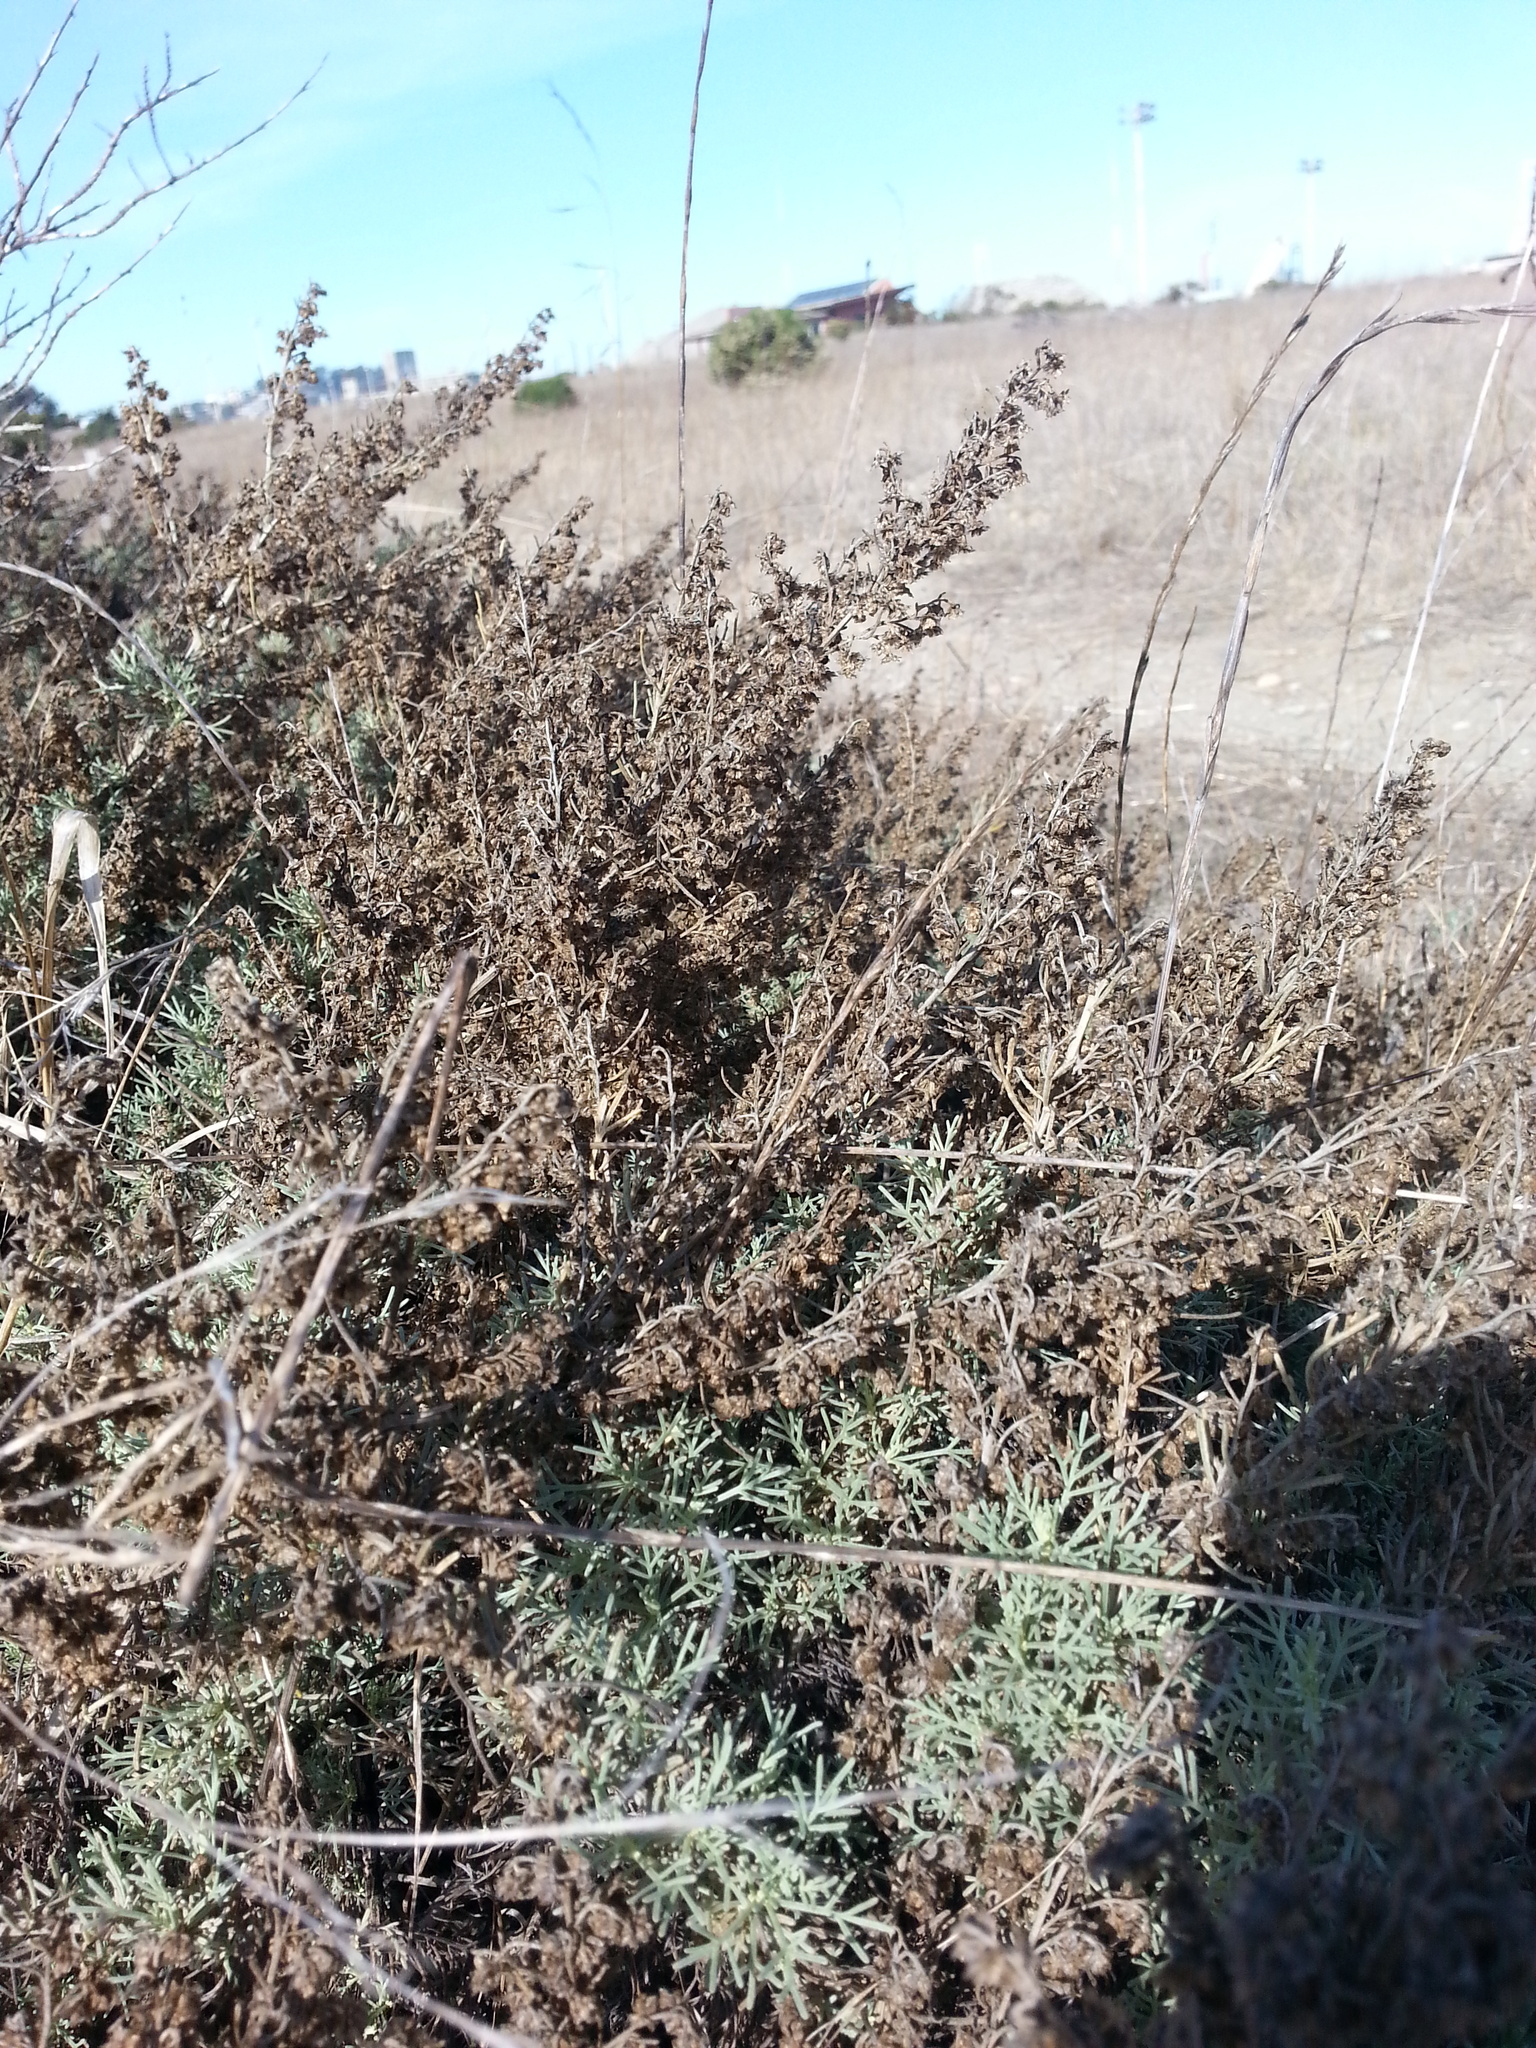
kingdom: Plantae
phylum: Tracheophyta
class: Magnoliopsida
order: Asterales
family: Asteraceae
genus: Artemisia
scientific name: Artemisia californica
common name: California sagebrush
